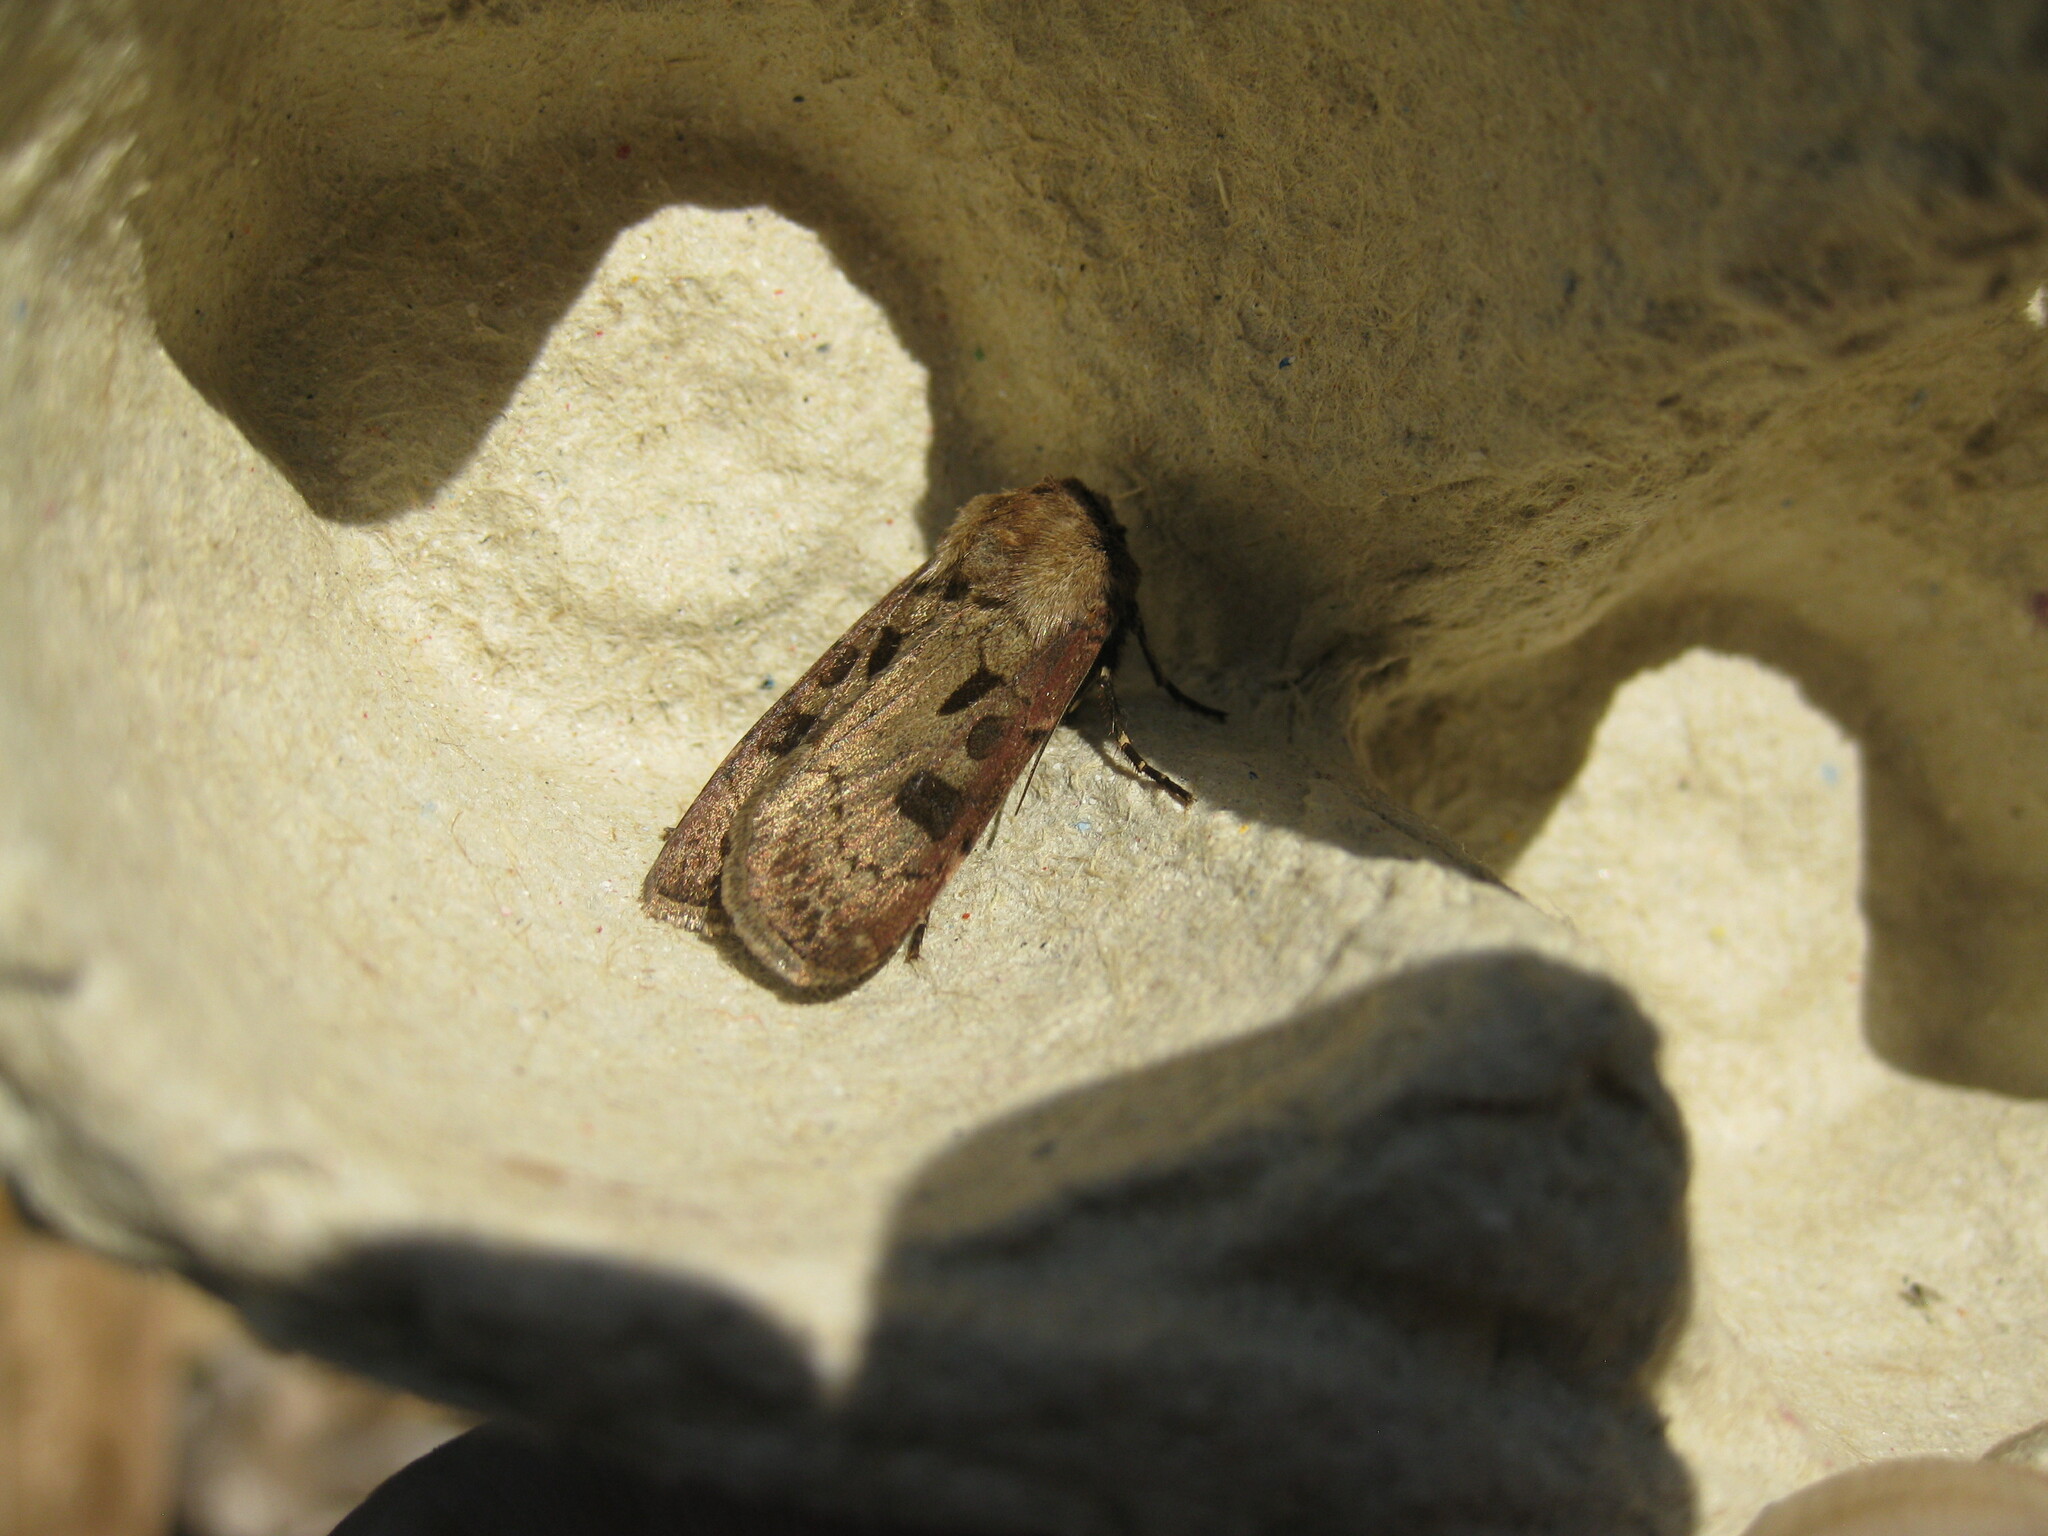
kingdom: Animalia
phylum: Arthropoda
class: Insecta
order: Lepidoptera
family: Noctuidae
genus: Agrotis
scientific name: Agrotis exclamationis
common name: Heart and dart
